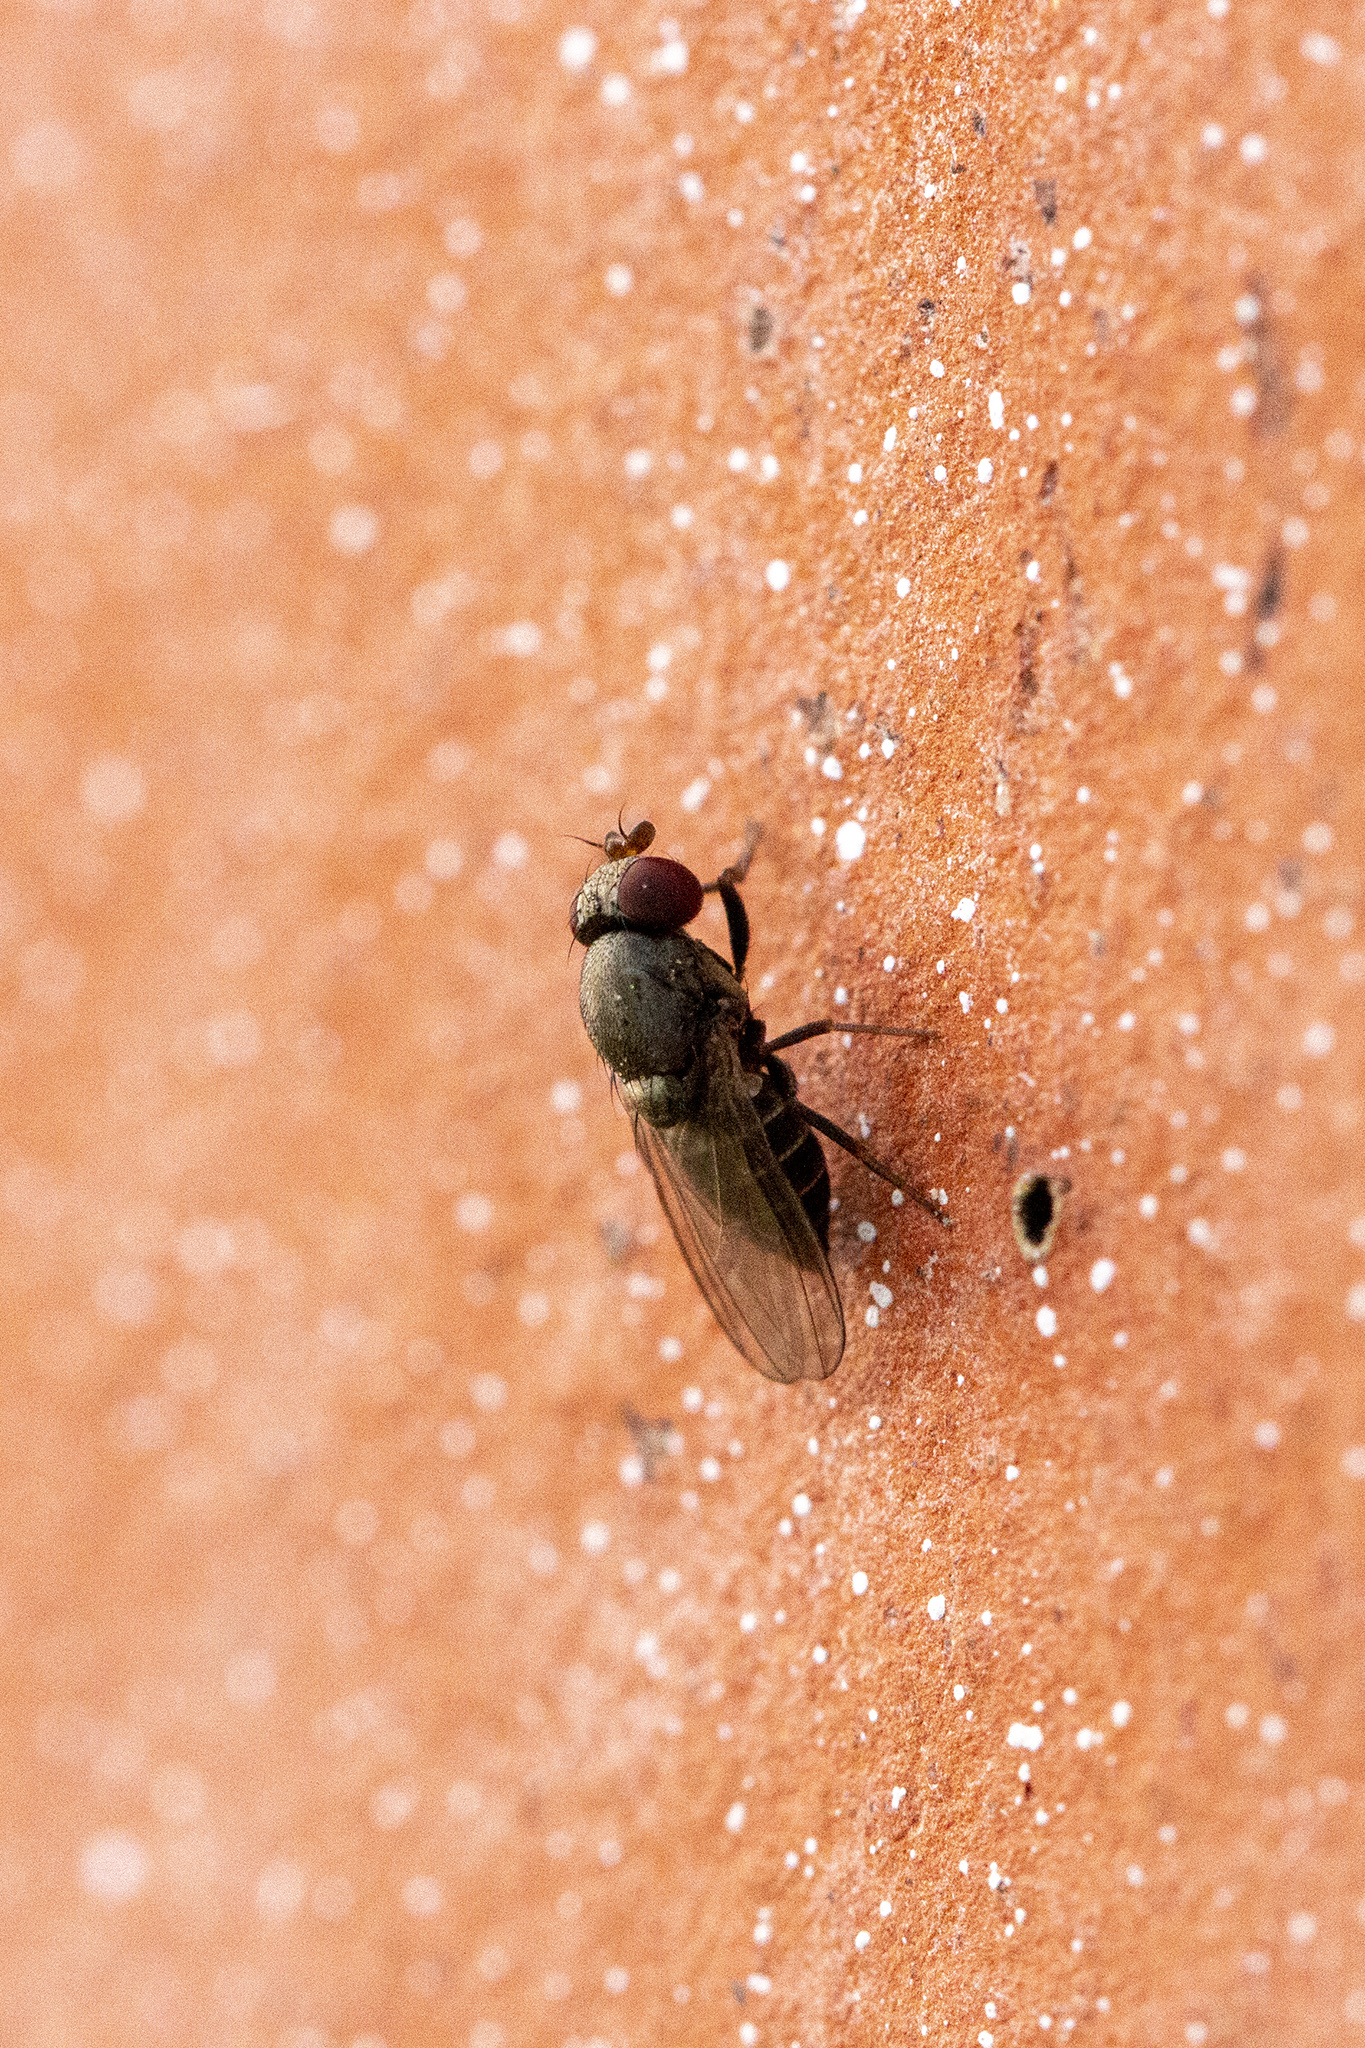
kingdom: Animalia
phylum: Arthropoda
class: Insecta
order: Diptera
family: Drosophilidae
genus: Cacoxenus
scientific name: Cacoxenus indagator
